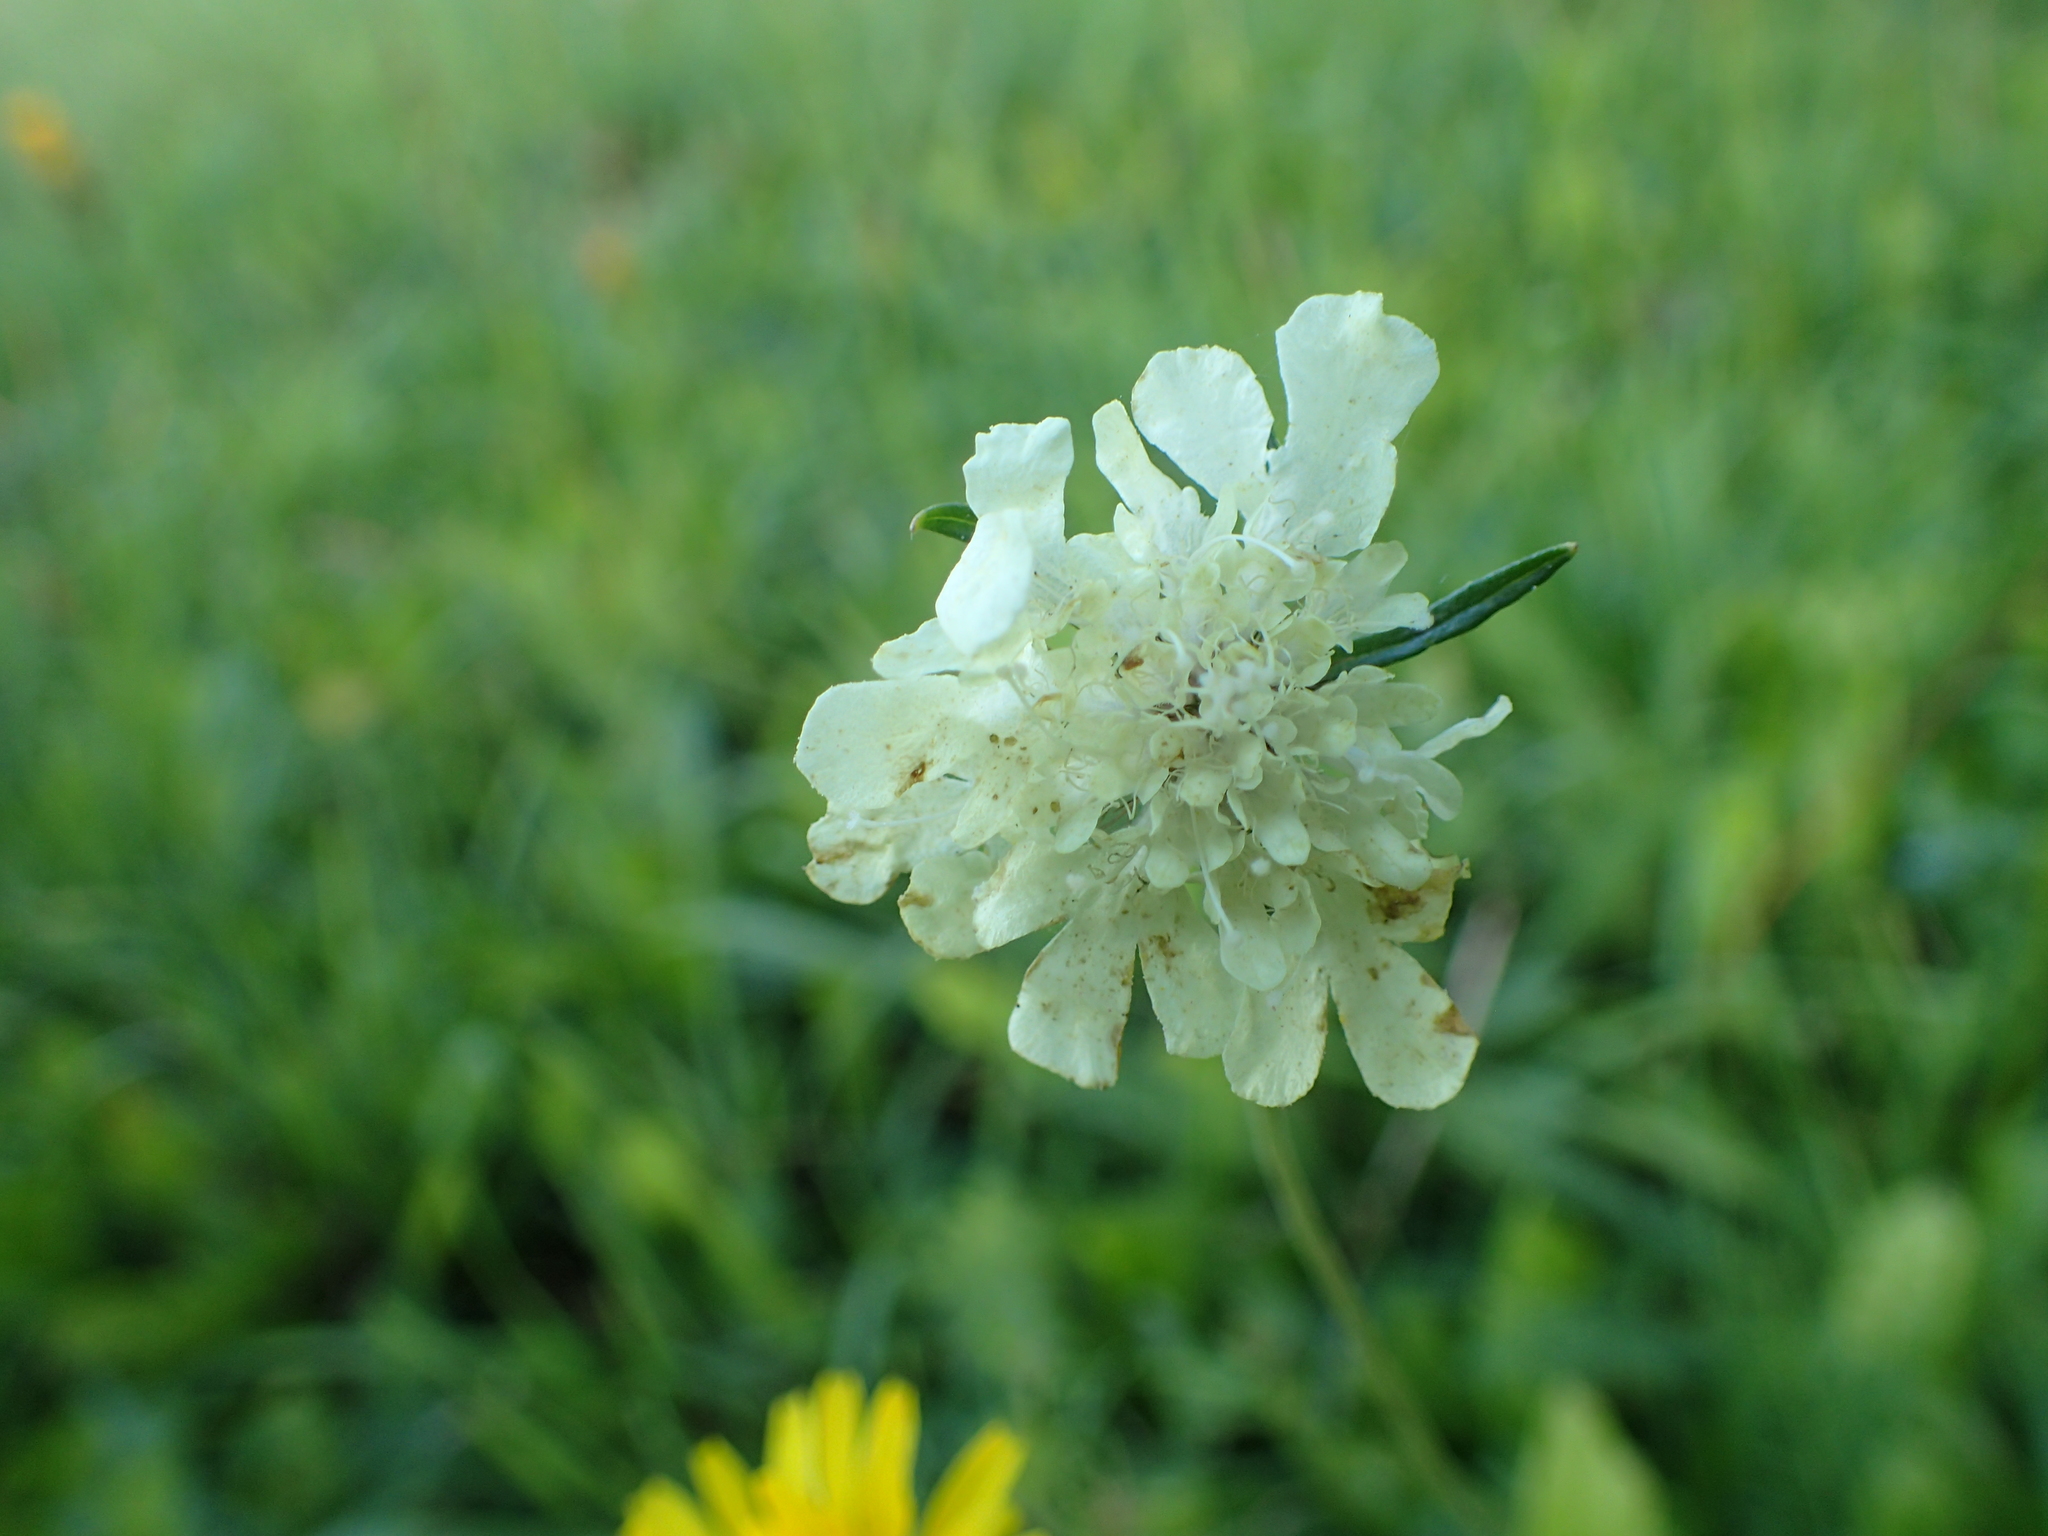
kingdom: Plantae
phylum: Tracheophyta
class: Magnoliopsida
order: Dipsacales
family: Caprifoliaceae
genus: Scabiosa
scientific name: Scabiosa ochroleuca
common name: Cream pincushions
